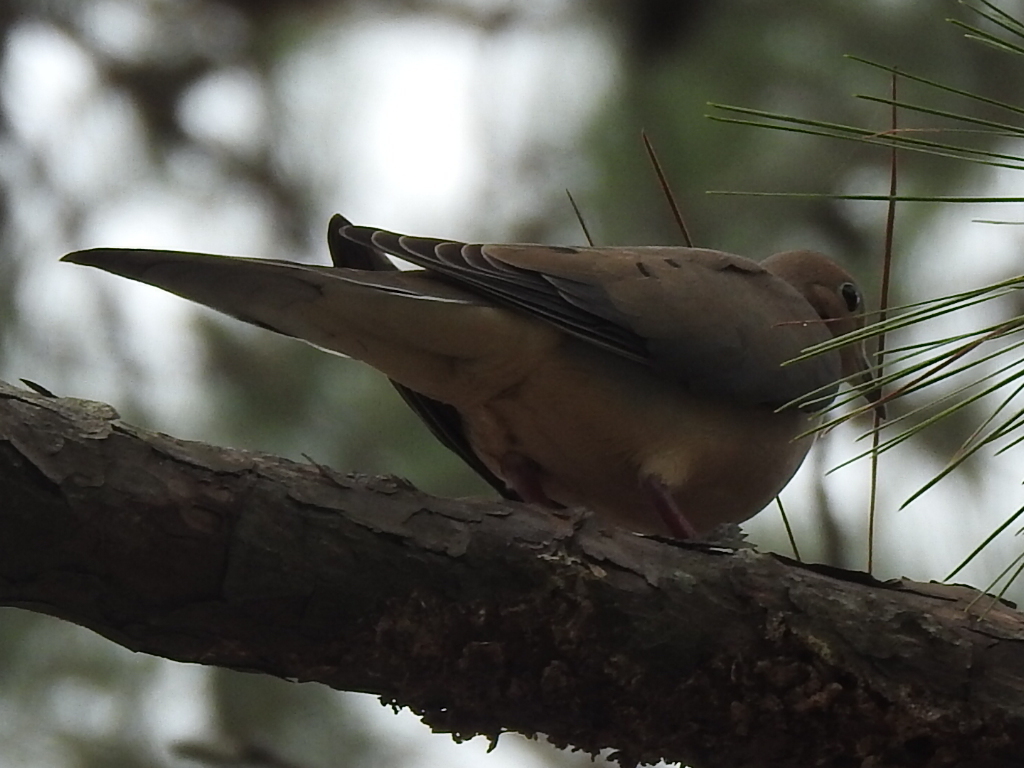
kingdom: Animalia
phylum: Chordata
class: Aves
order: Columbiformes
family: Columbidae
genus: Zenaida
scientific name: Zenaida macroura
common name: Mourning dove
